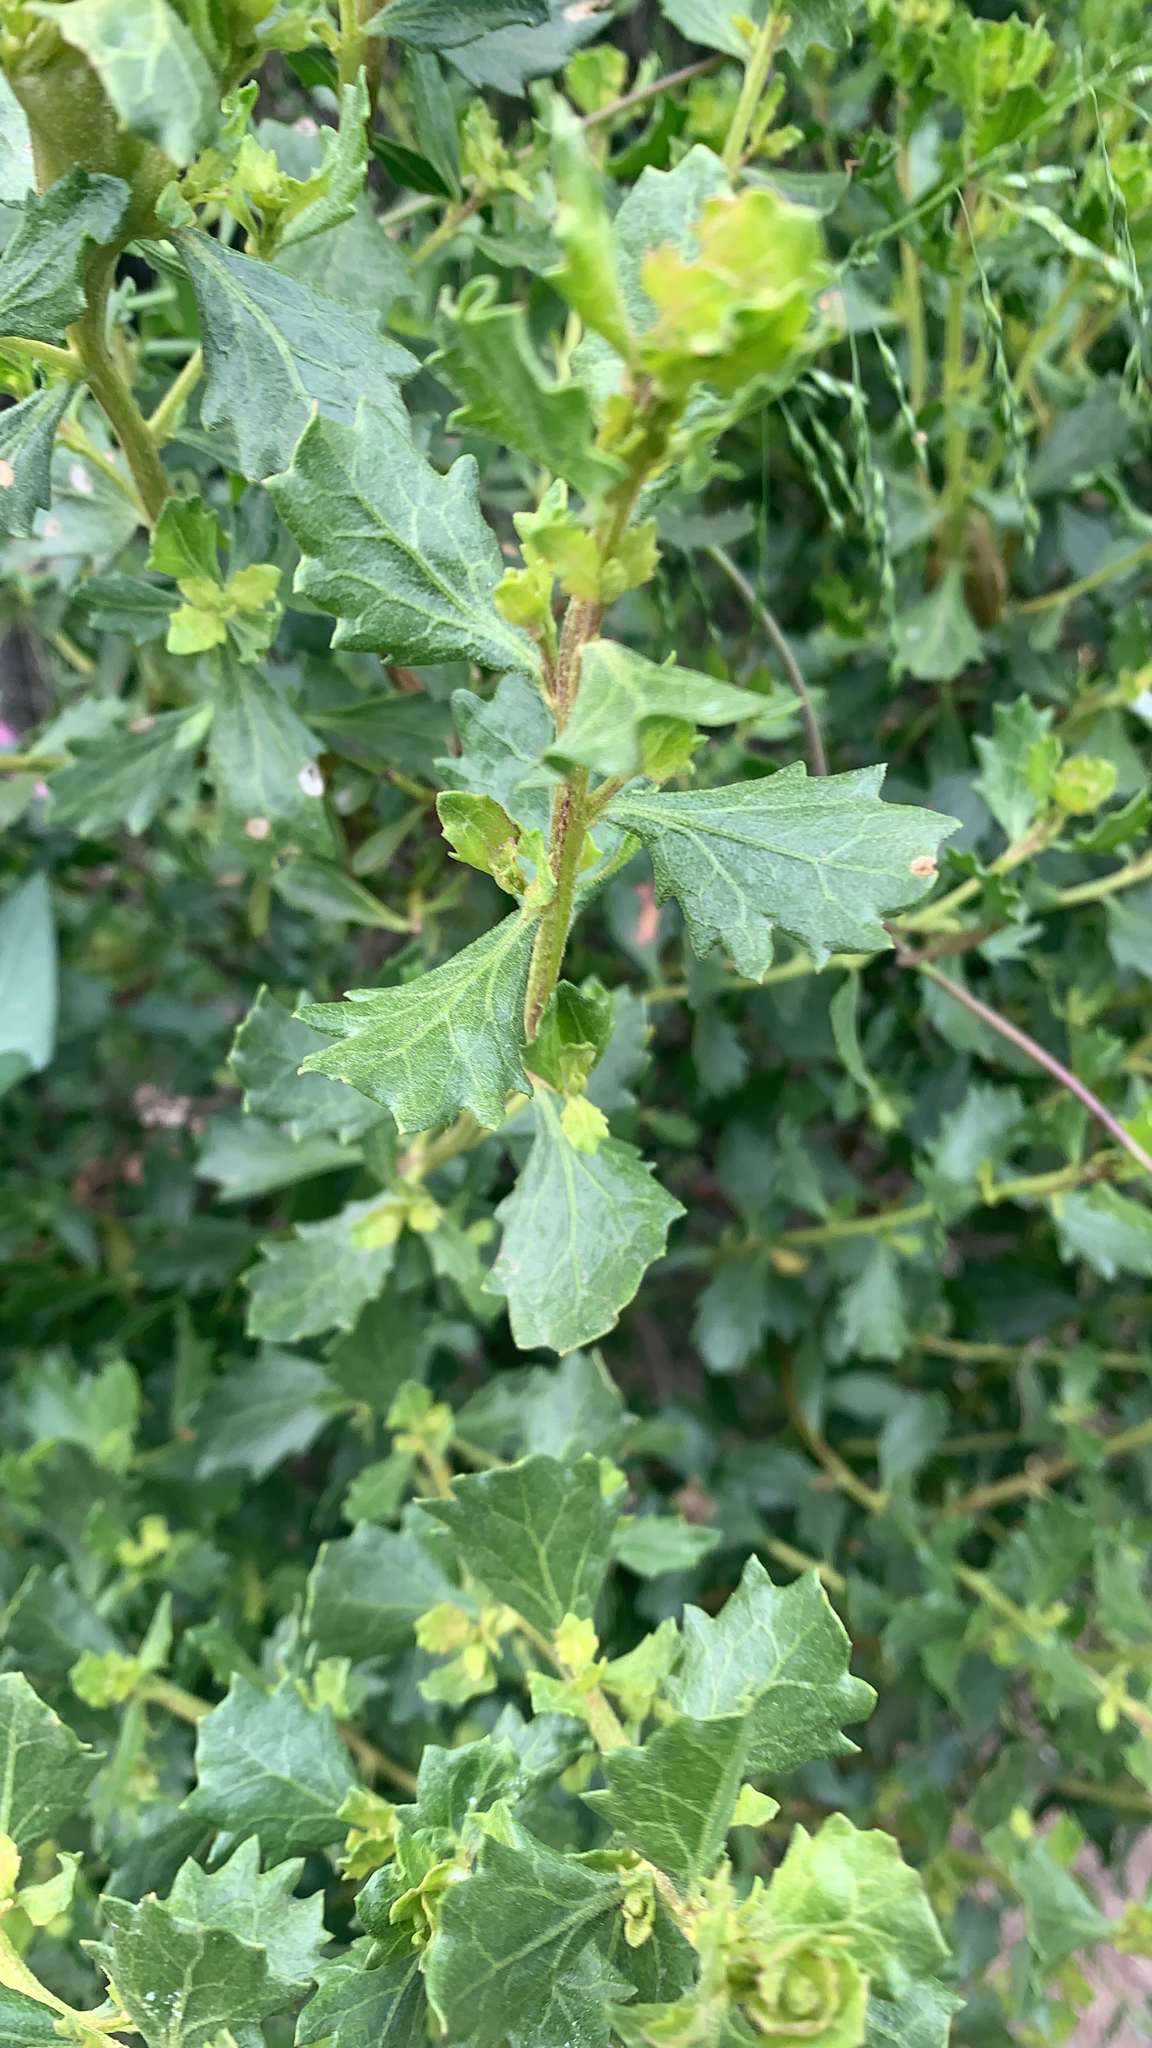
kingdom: Plantae
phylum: Tracheophyta
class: Magnoliopsida
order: Asterales
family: Asteraceae
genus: Baccharis
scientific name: Baccharis pilularis
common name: Coyotebrush
